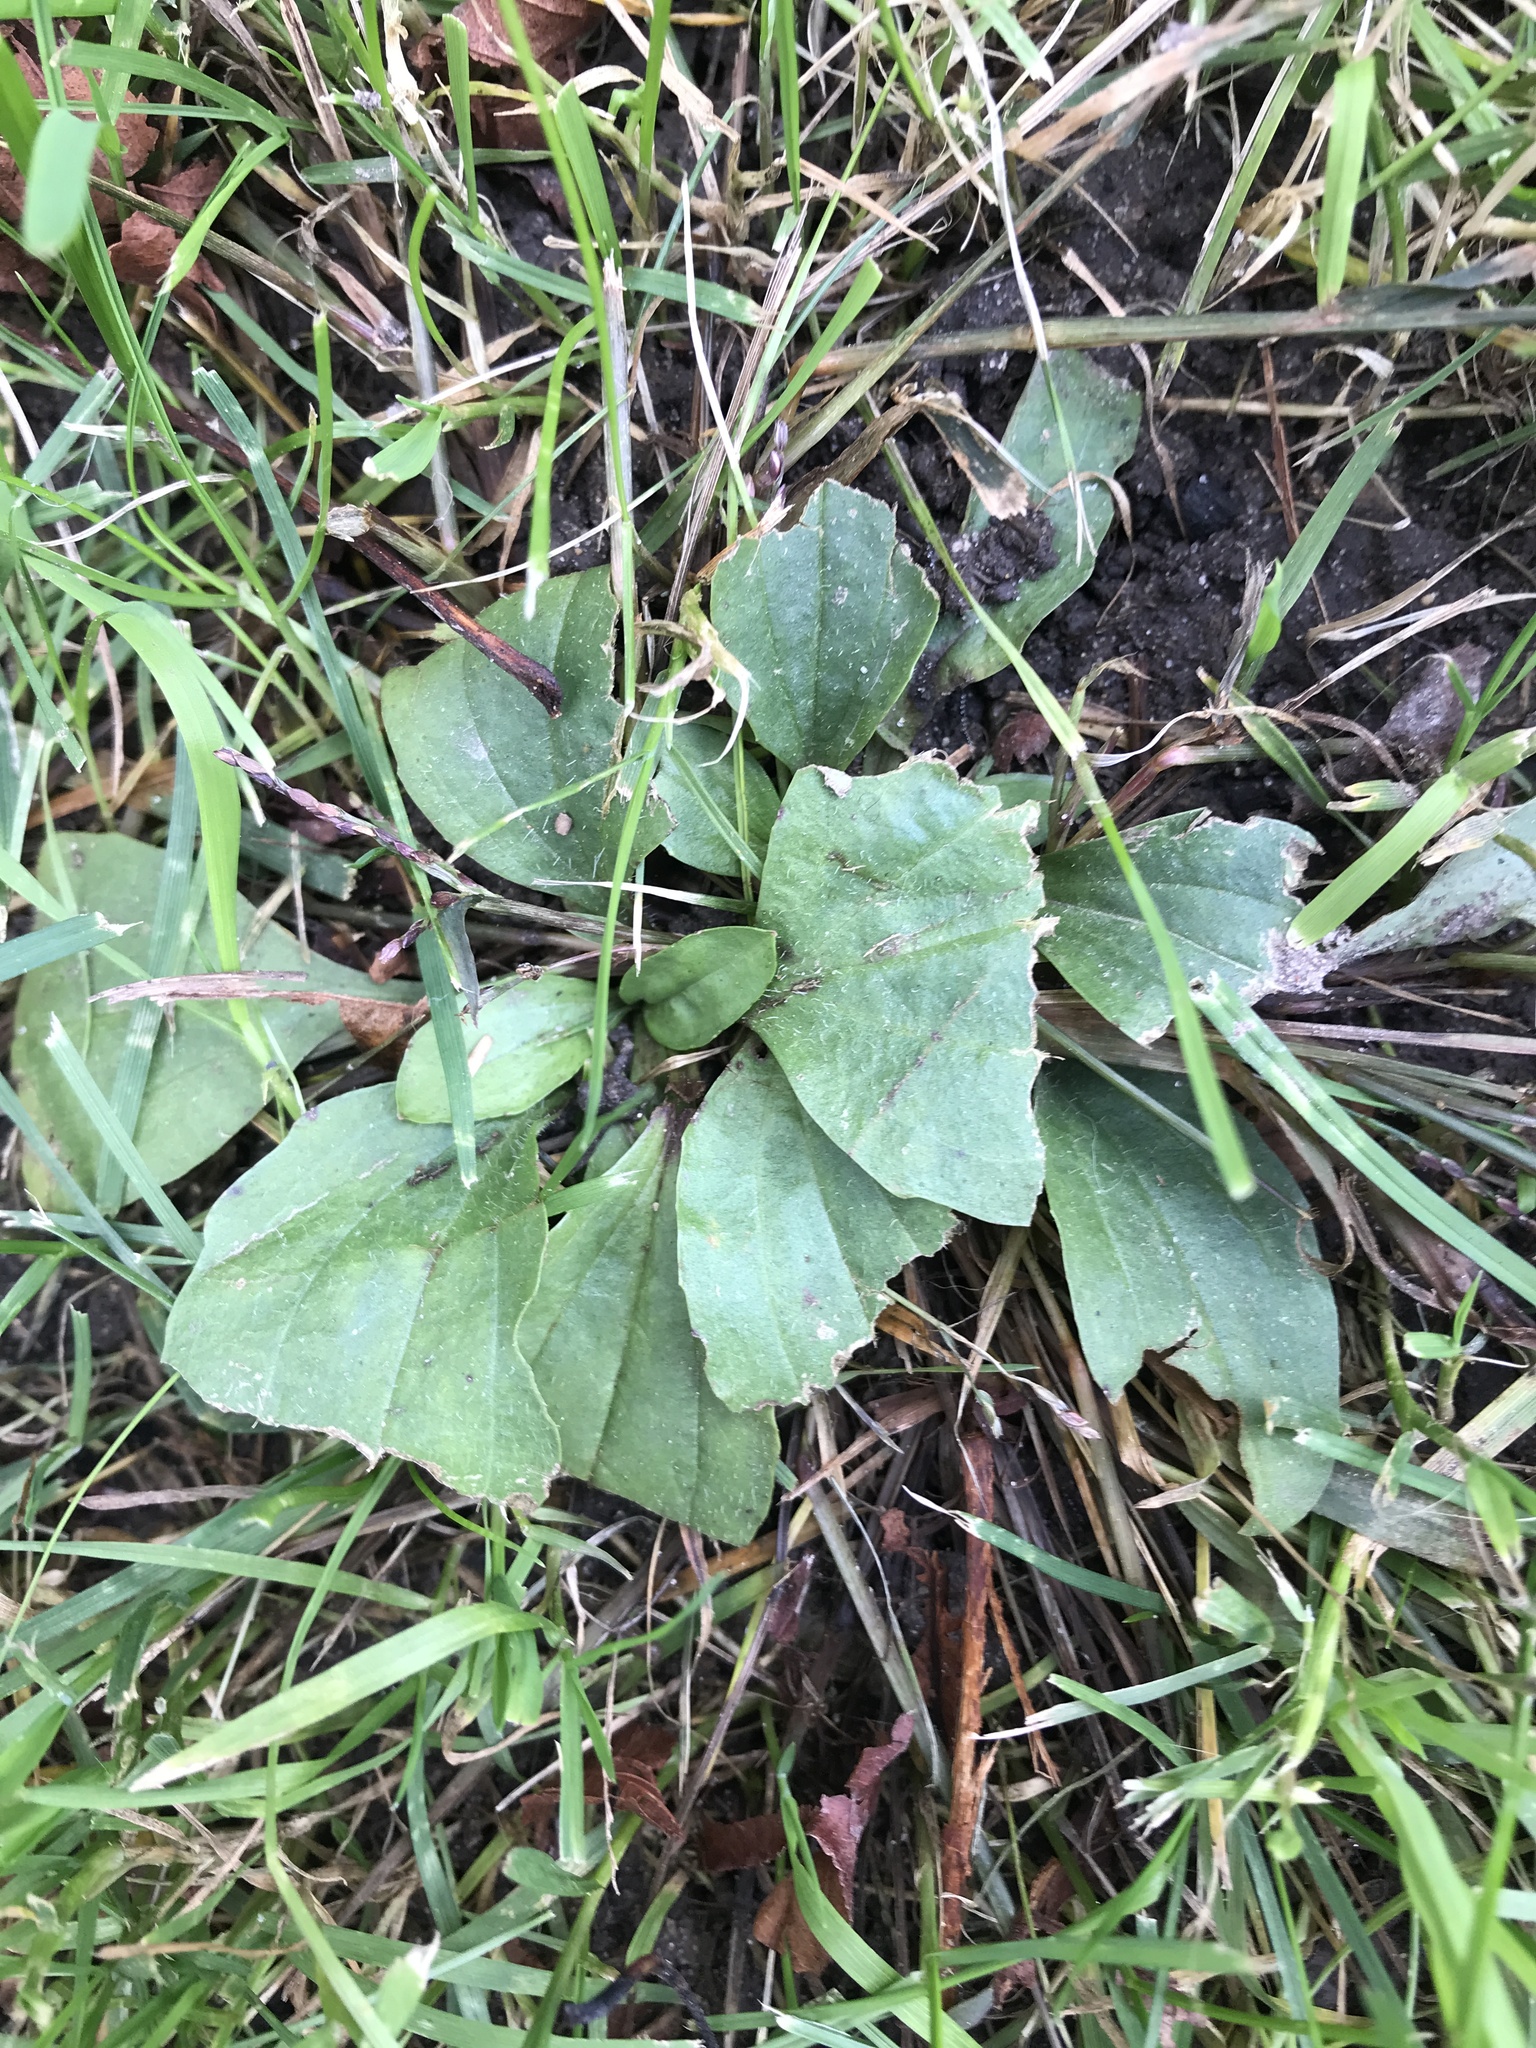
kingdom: Plantae
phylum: Tracheophyta
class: Magnoliopsida
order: Lamiales
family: Plantaginaceae
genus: Plantago
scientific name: Plantago
